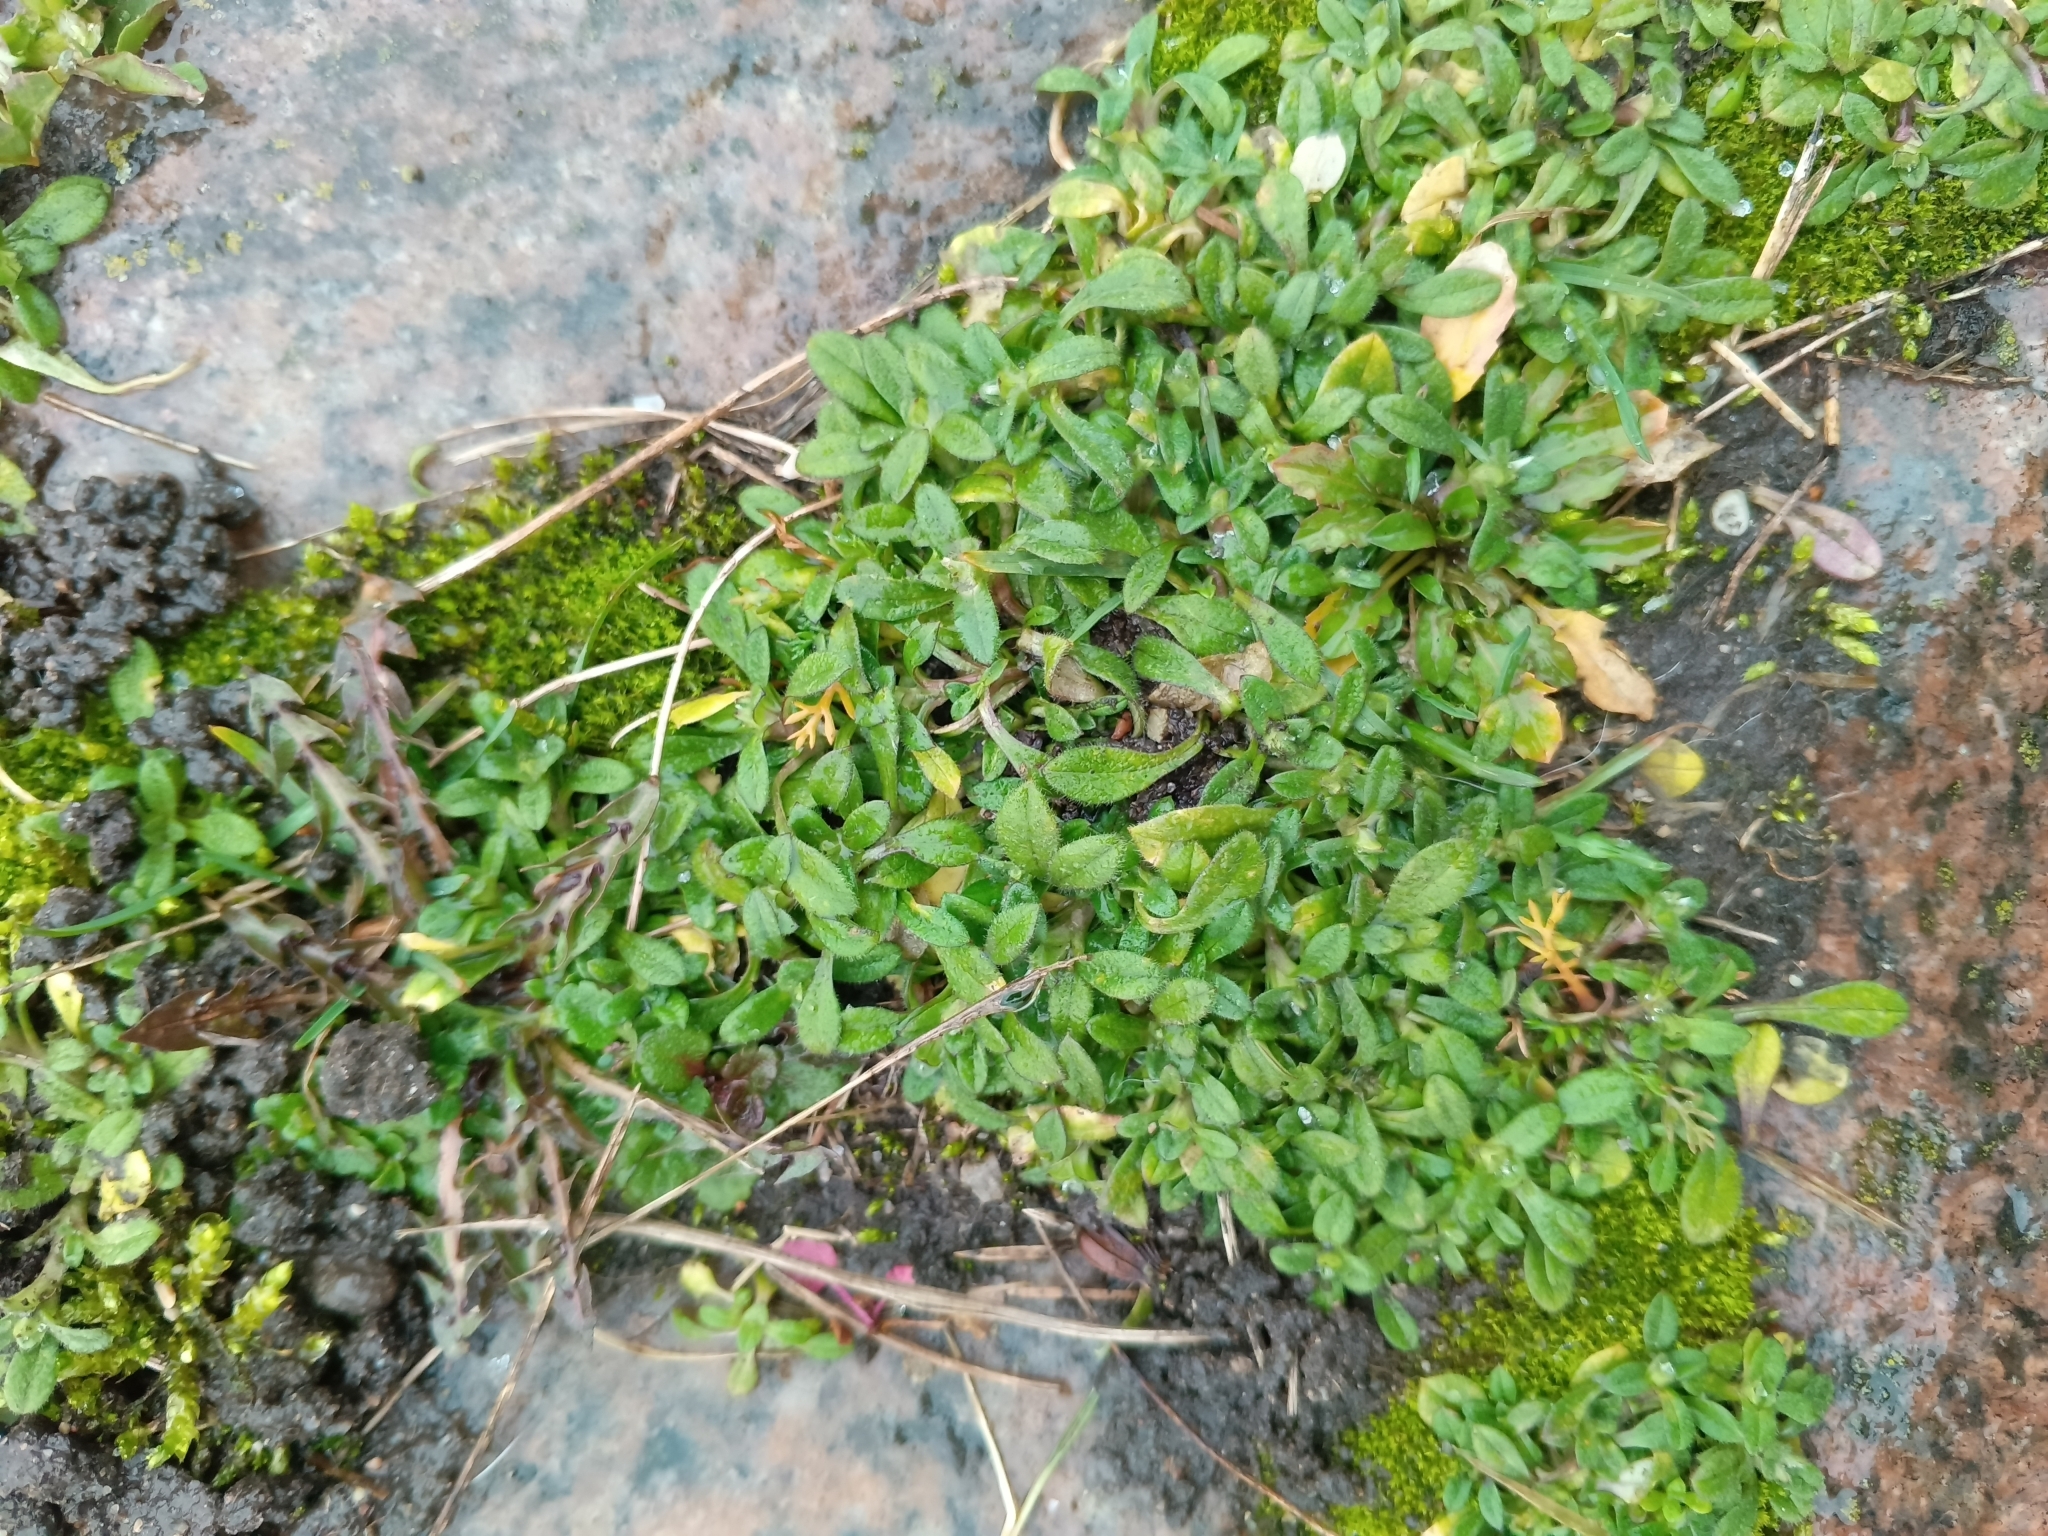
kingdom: Plantae
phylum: Tracheophyta
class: Magnoliopsida
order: Caryophyllales
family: Caryophyllaceae
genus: Cerastium
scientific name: Cerastium holosteoides
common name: Big chickweed
